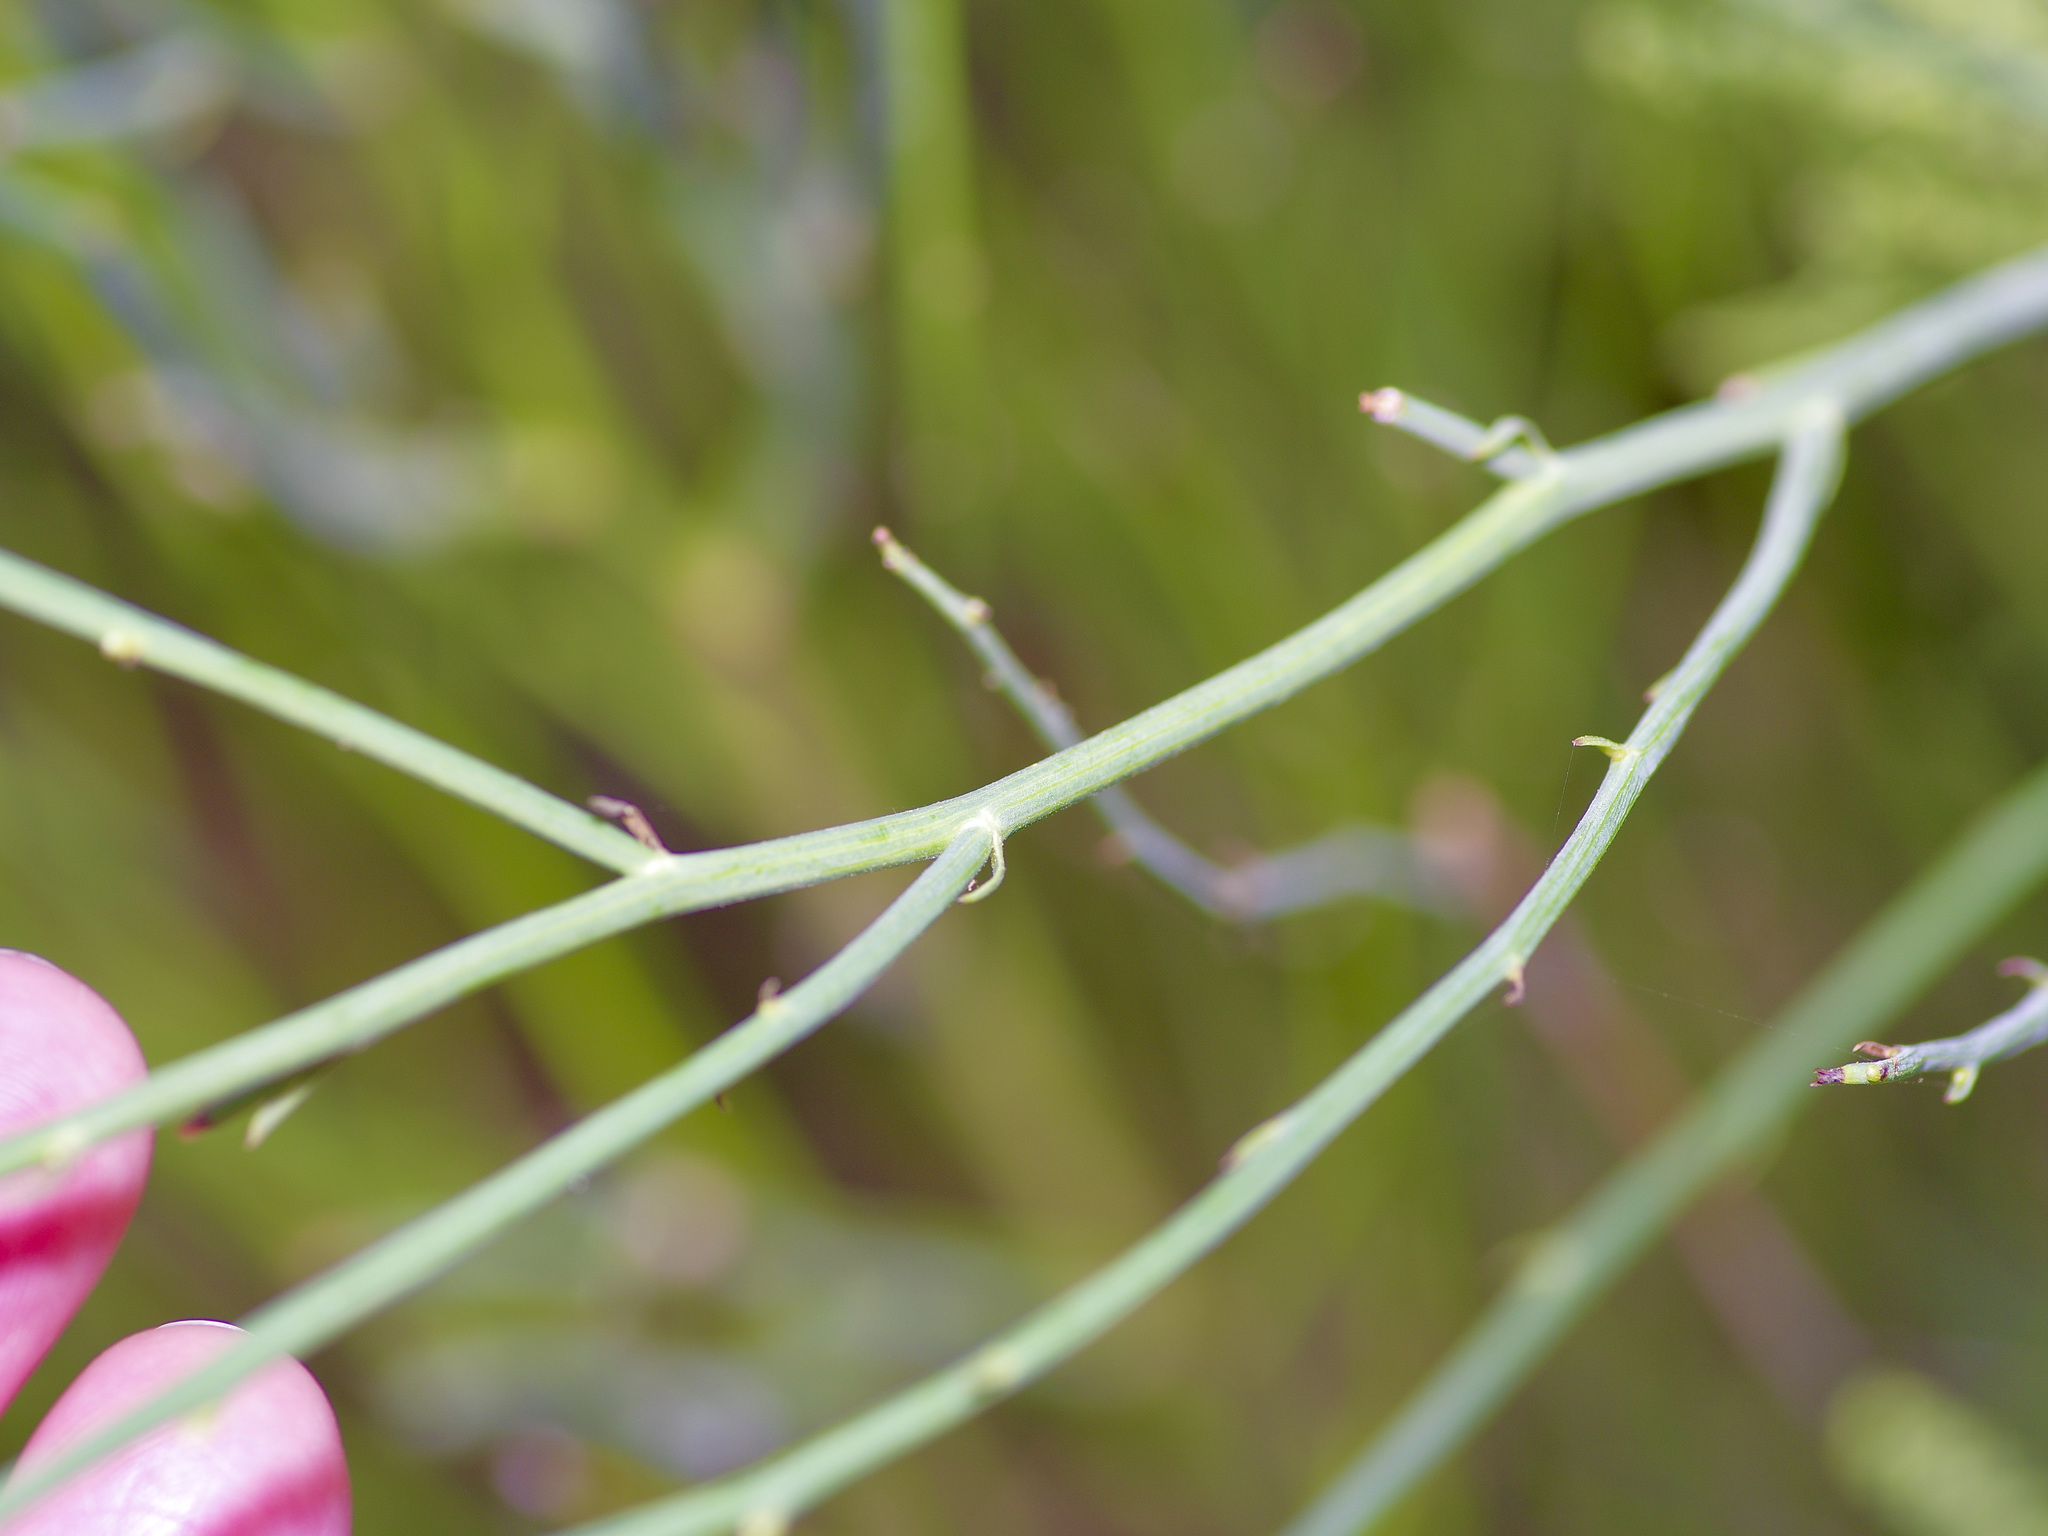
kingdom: Plantae
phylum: Tracheophyta
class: Magnoliopsida
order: Asterales
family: Asteraceae
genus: Chloracantha
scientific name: Chloracantha spinosa
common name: Mexican devilweed
